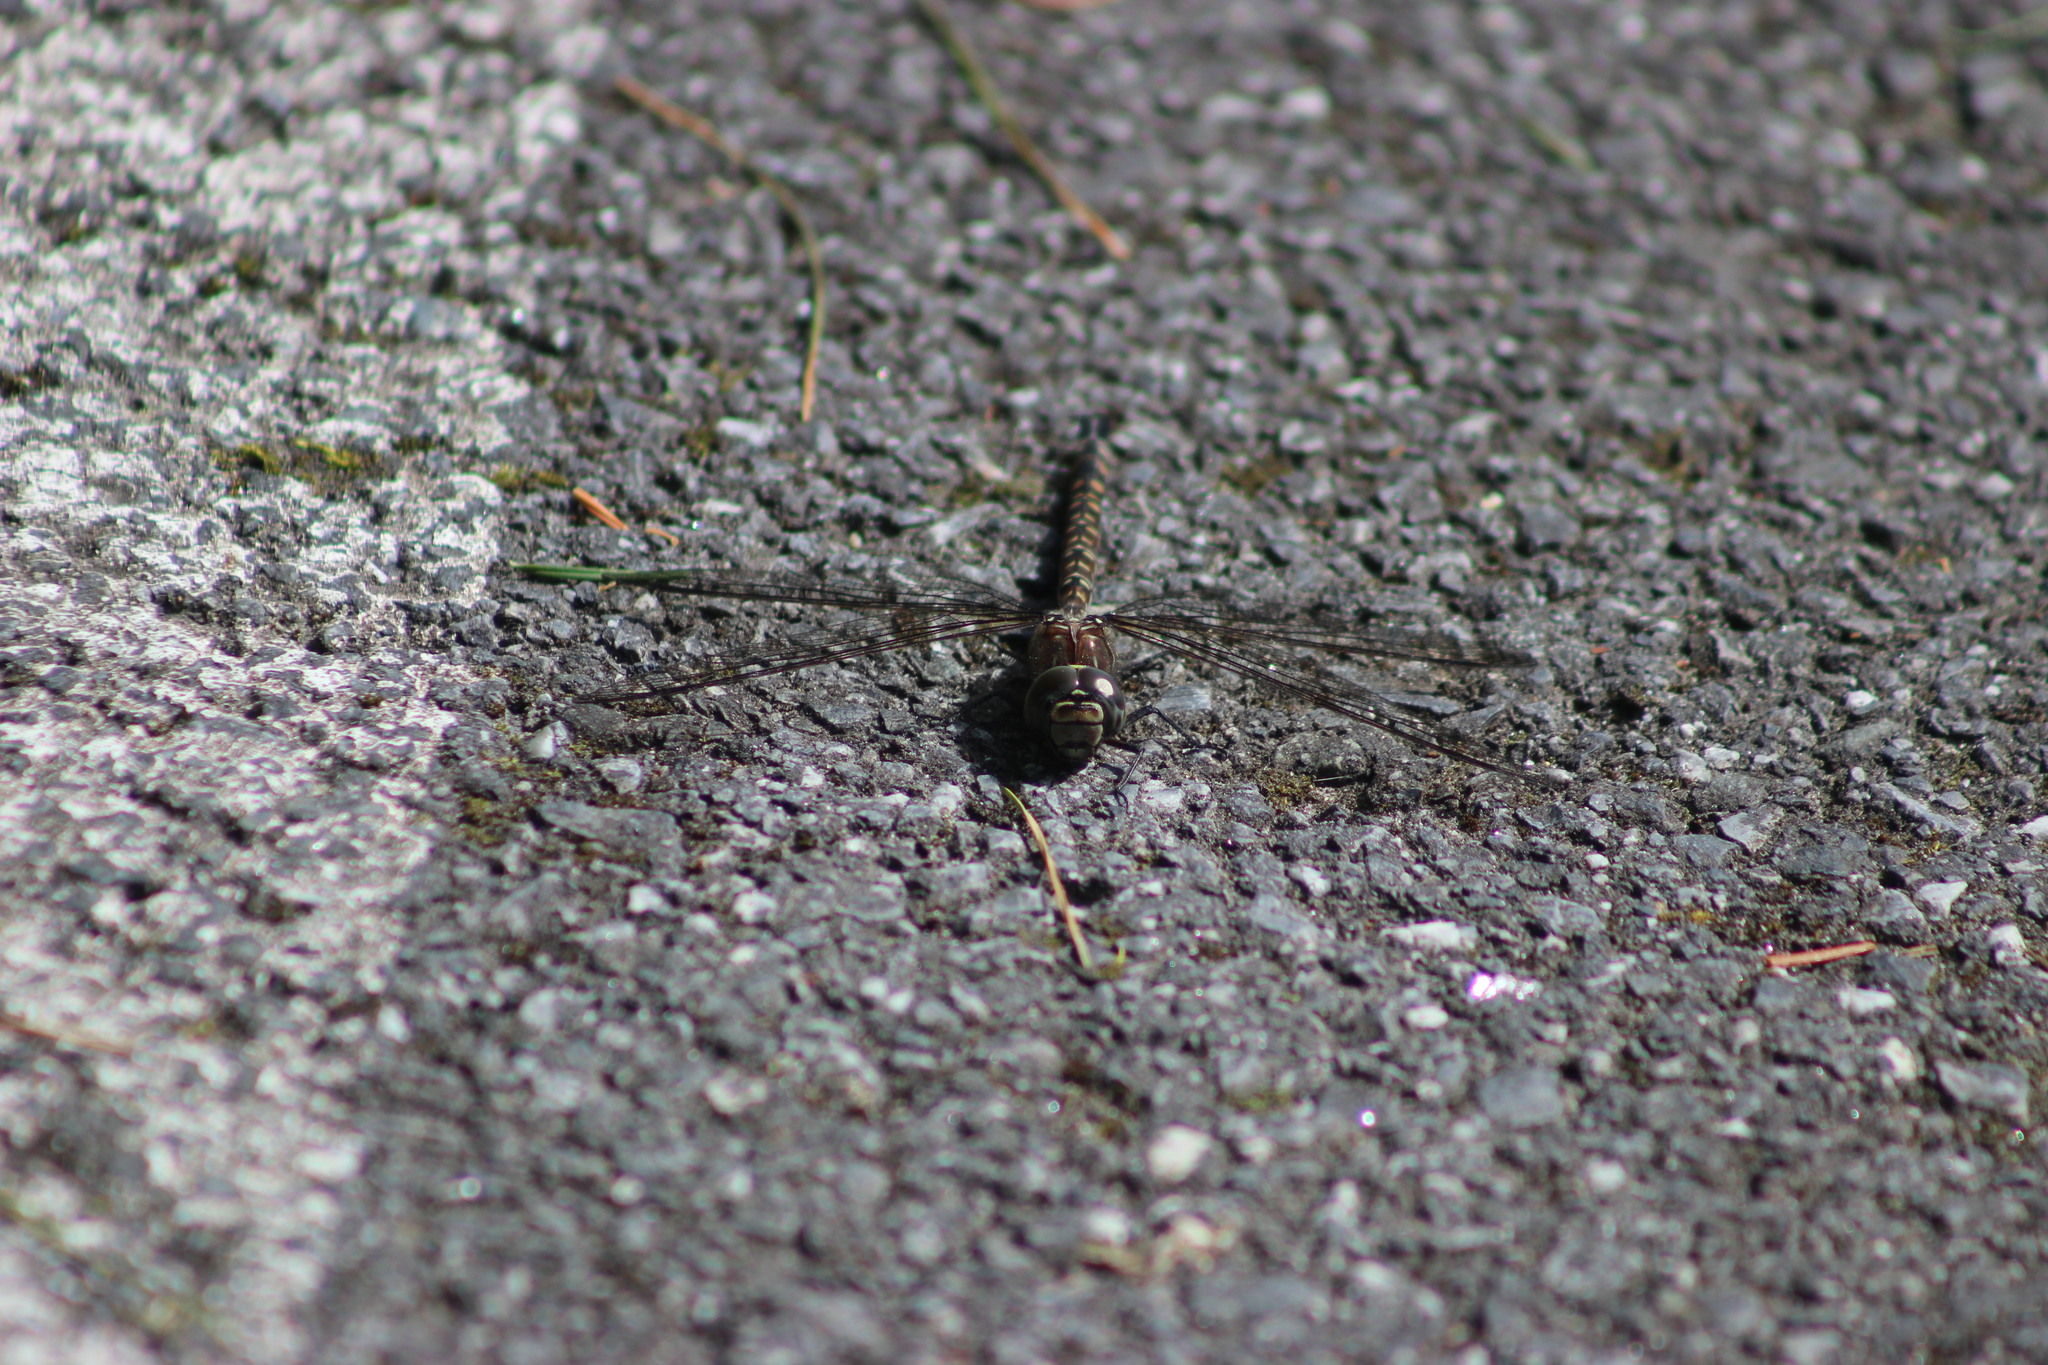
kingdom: Animalia
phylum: Arthropoda
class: Insecta
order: Odonata
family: Aeshnidae
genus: Aeshna
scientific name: Aeshna subarctica
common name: Subarctic darner
